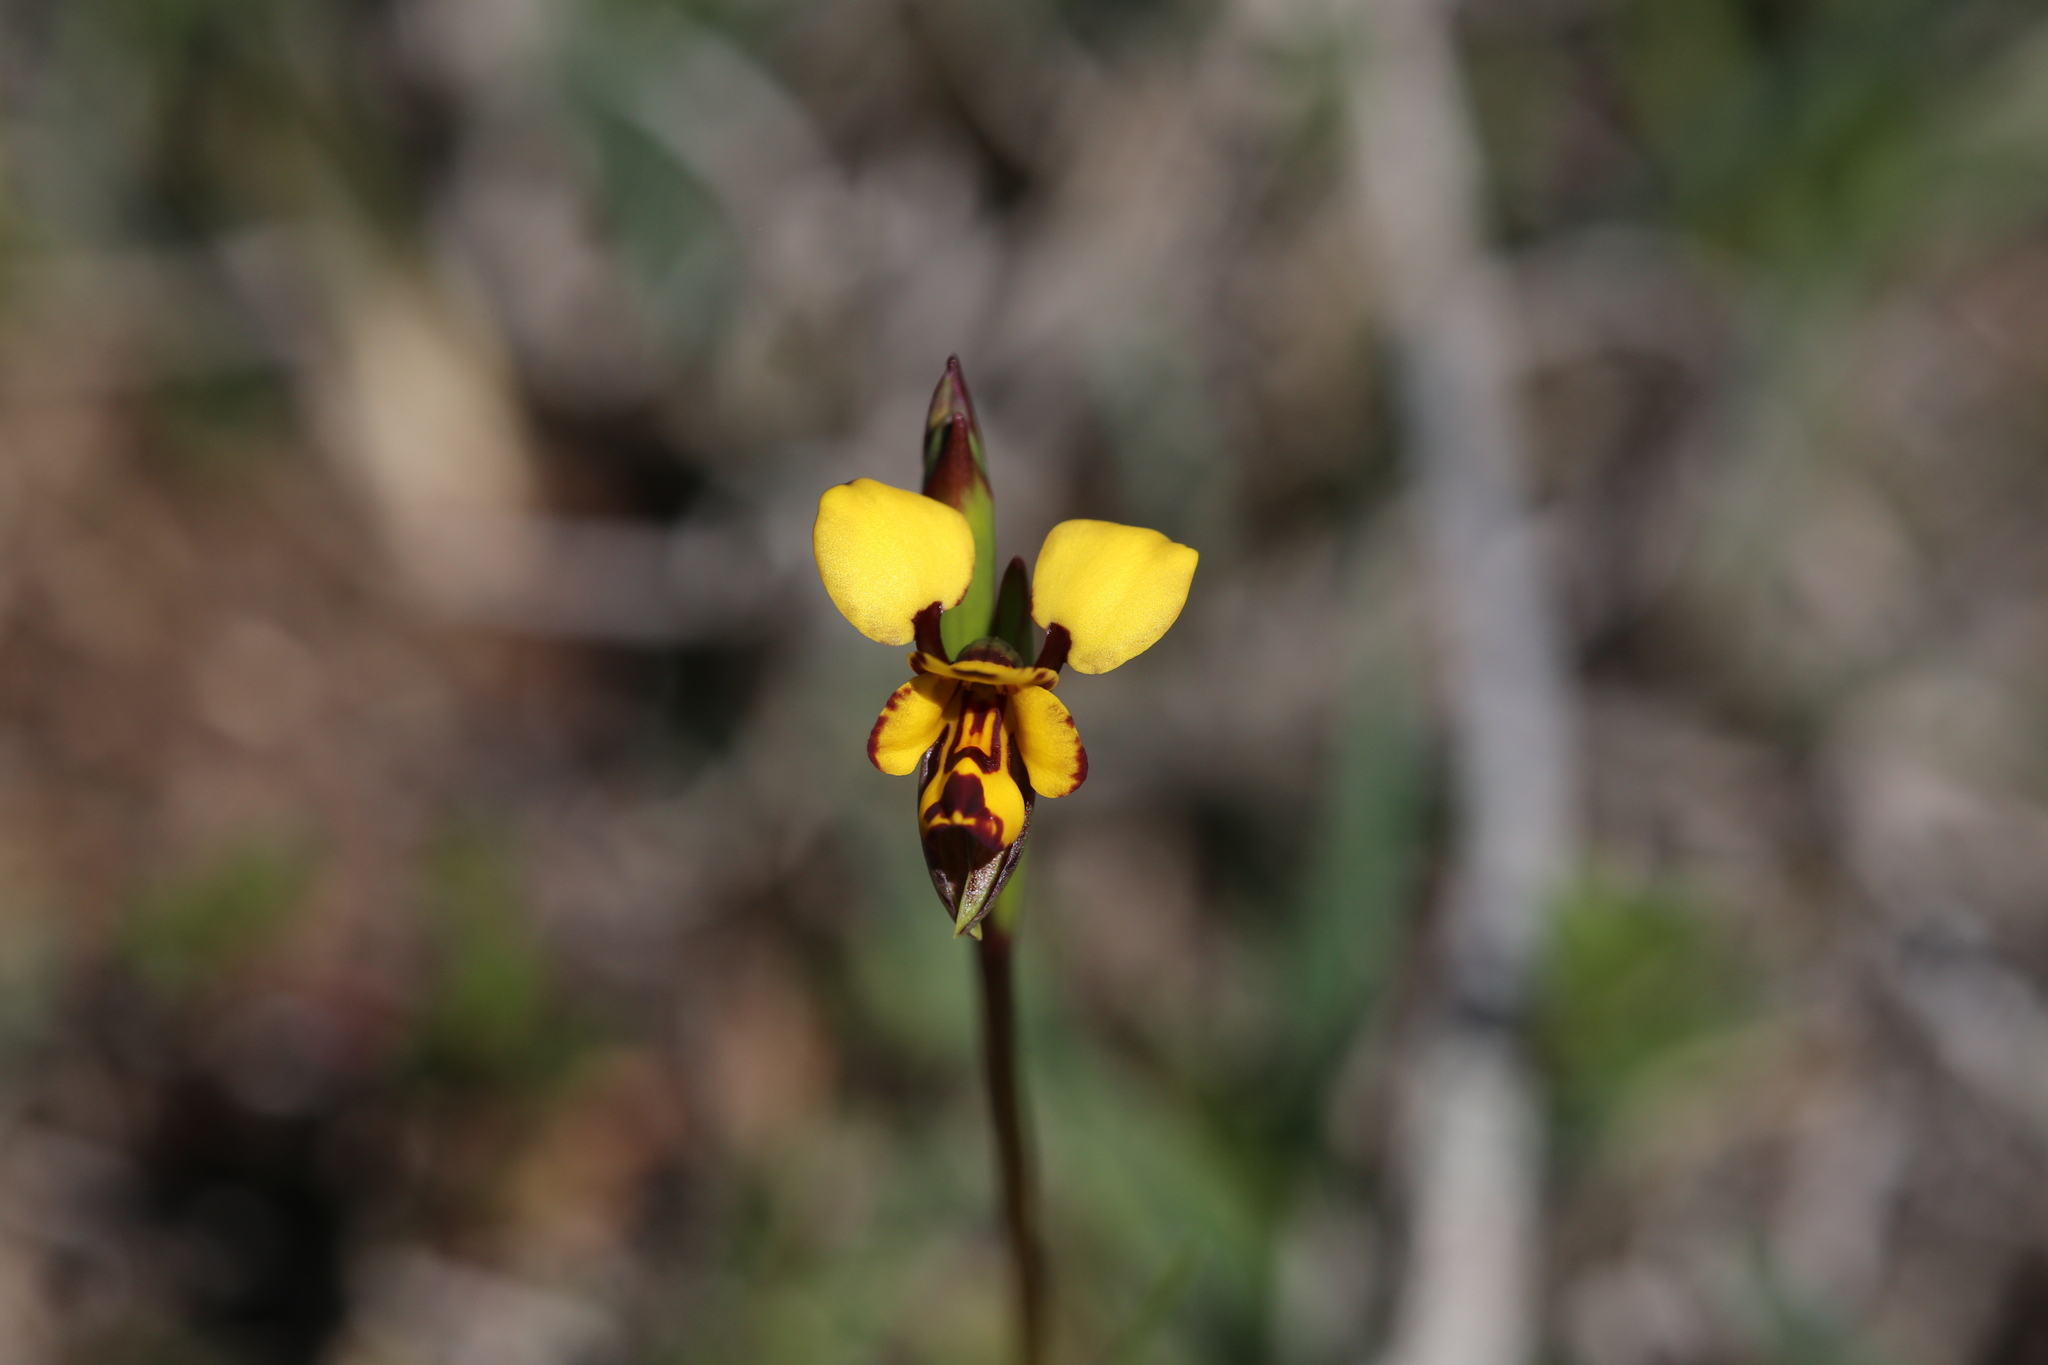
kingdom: Plantae
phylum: Tracheophyta
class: Liliopsida
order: Asparagales
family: Orchidaceae
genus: Diuris
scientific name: Diuris decrementum
